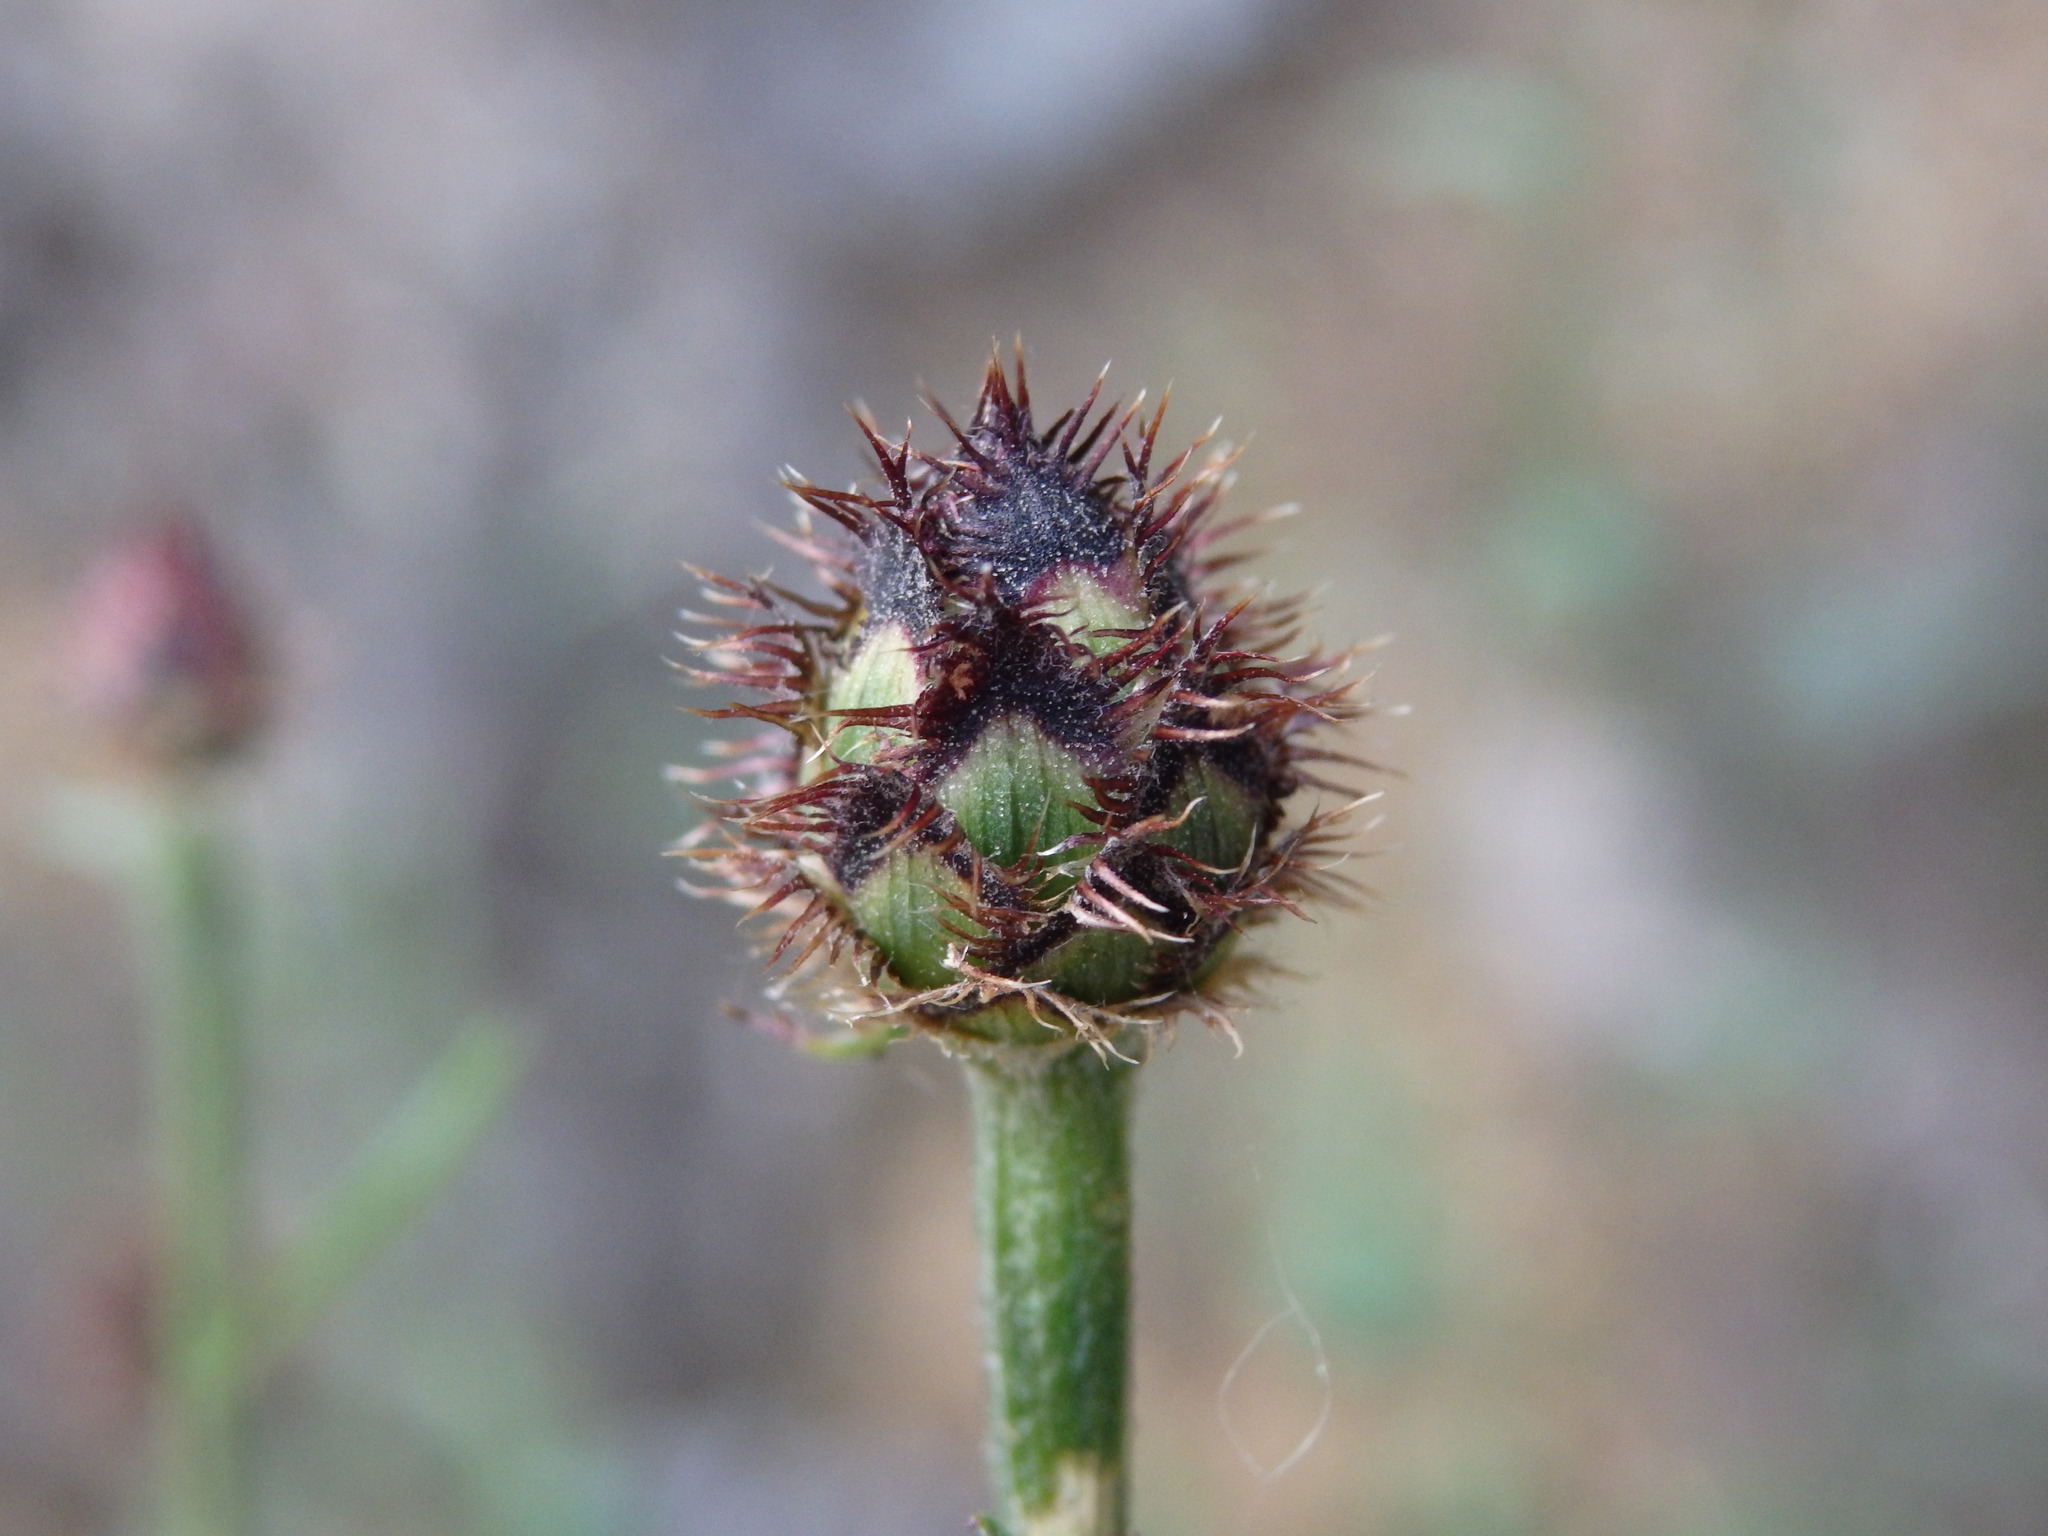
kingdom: Plantae
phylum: Tracheophyta
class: Magnoliopsida
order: Asterales
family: Asteraceae
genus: Centaurea
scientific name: Centaurea limbata
